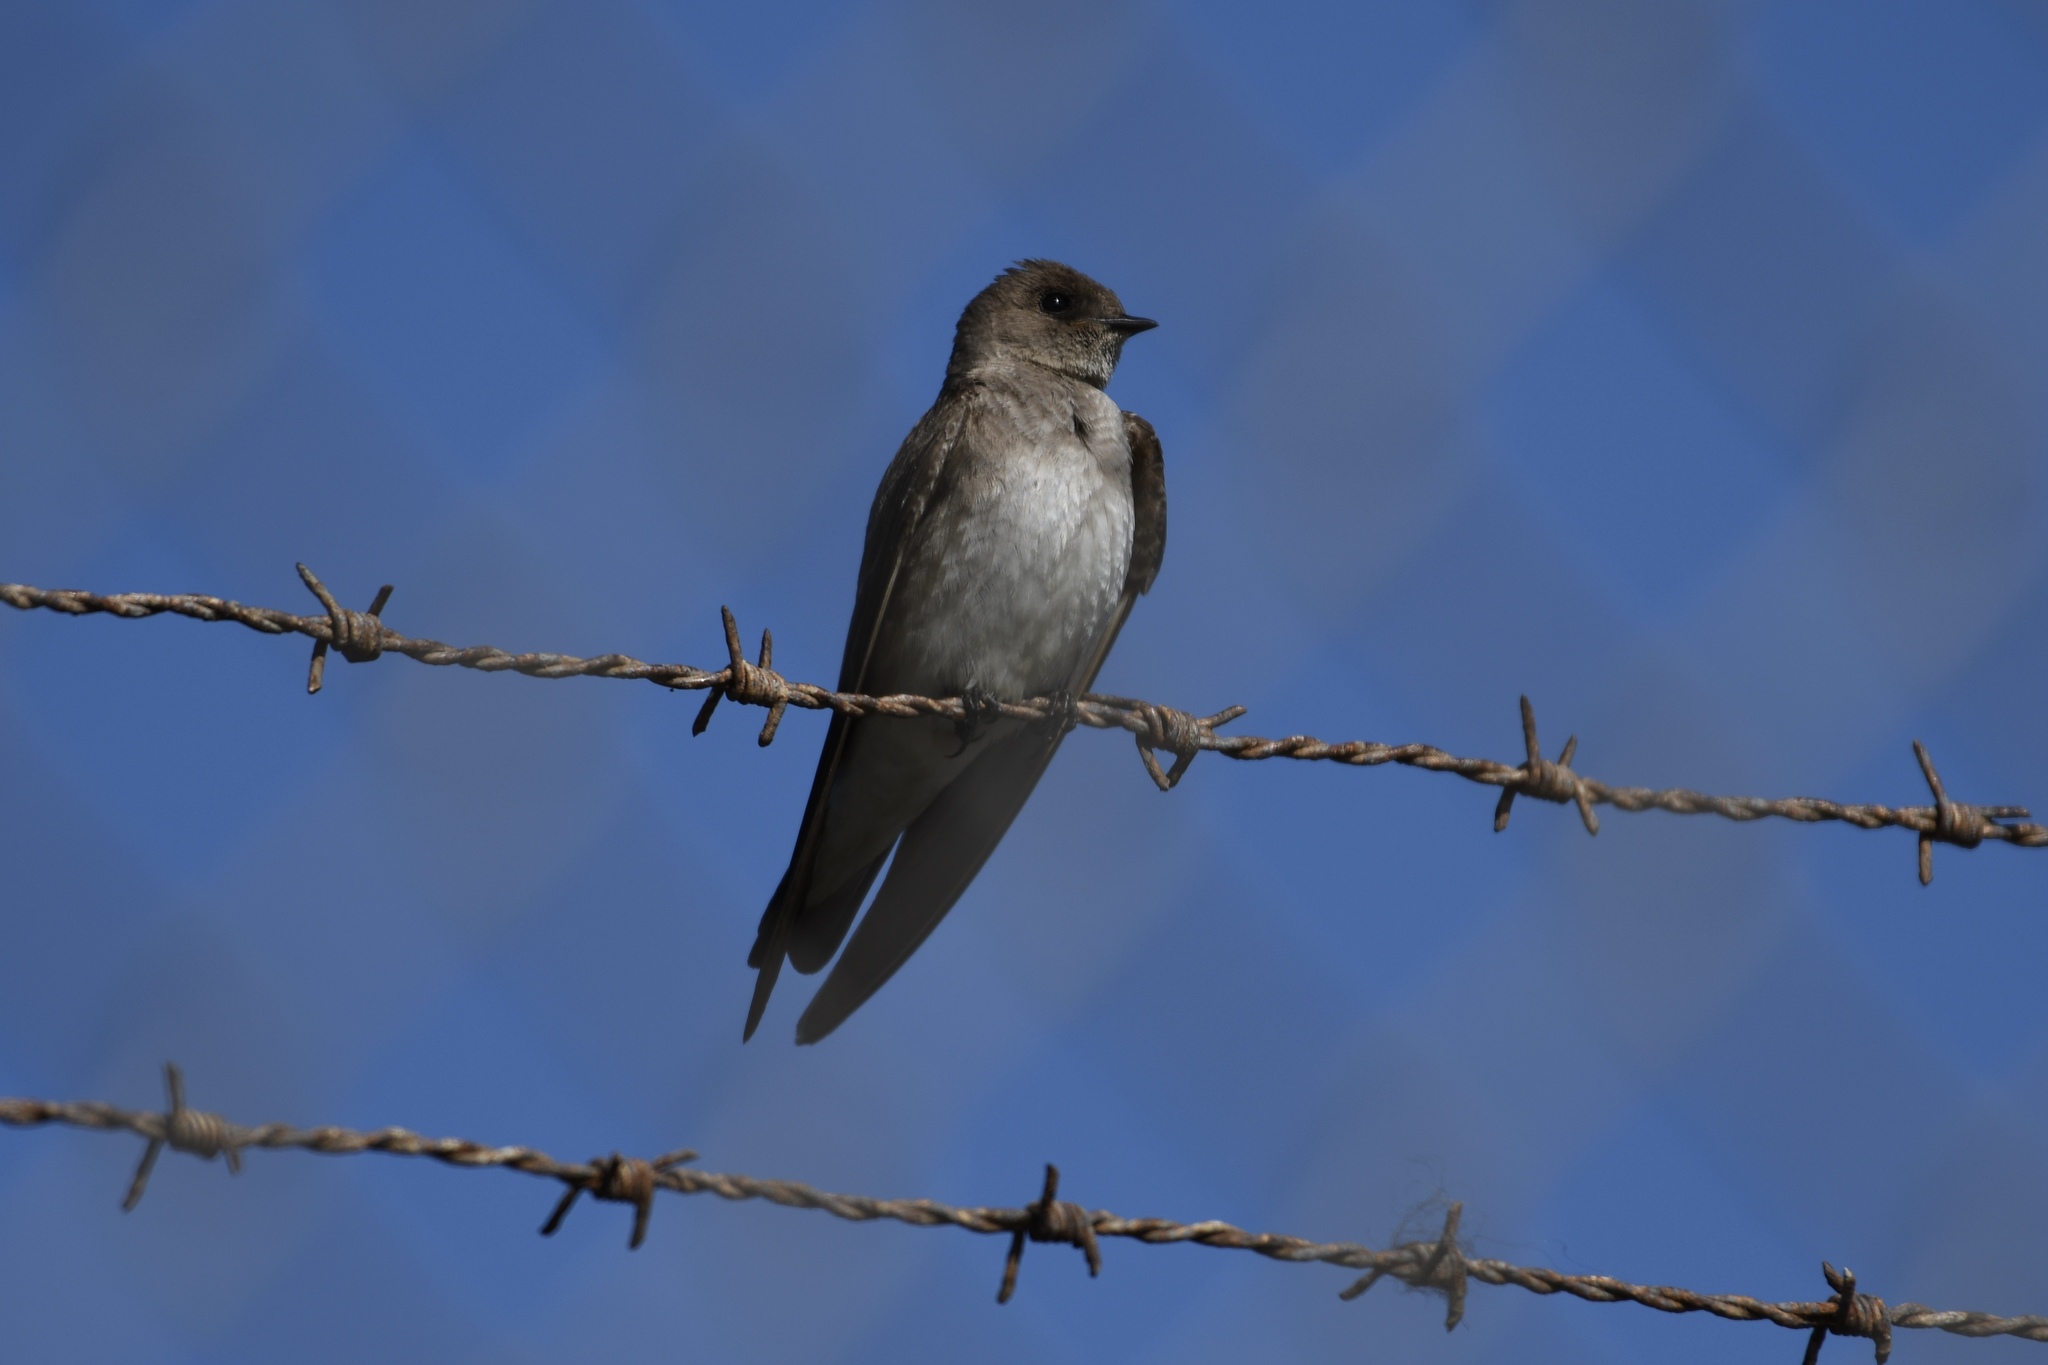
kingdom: Animalia
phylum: Chordata
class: Aves
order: Passeriformes
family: Hirundinidae
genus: Stelgidopteryx
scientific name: Stelgidopteryx serripennis
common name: Northern rough-winged swallow
